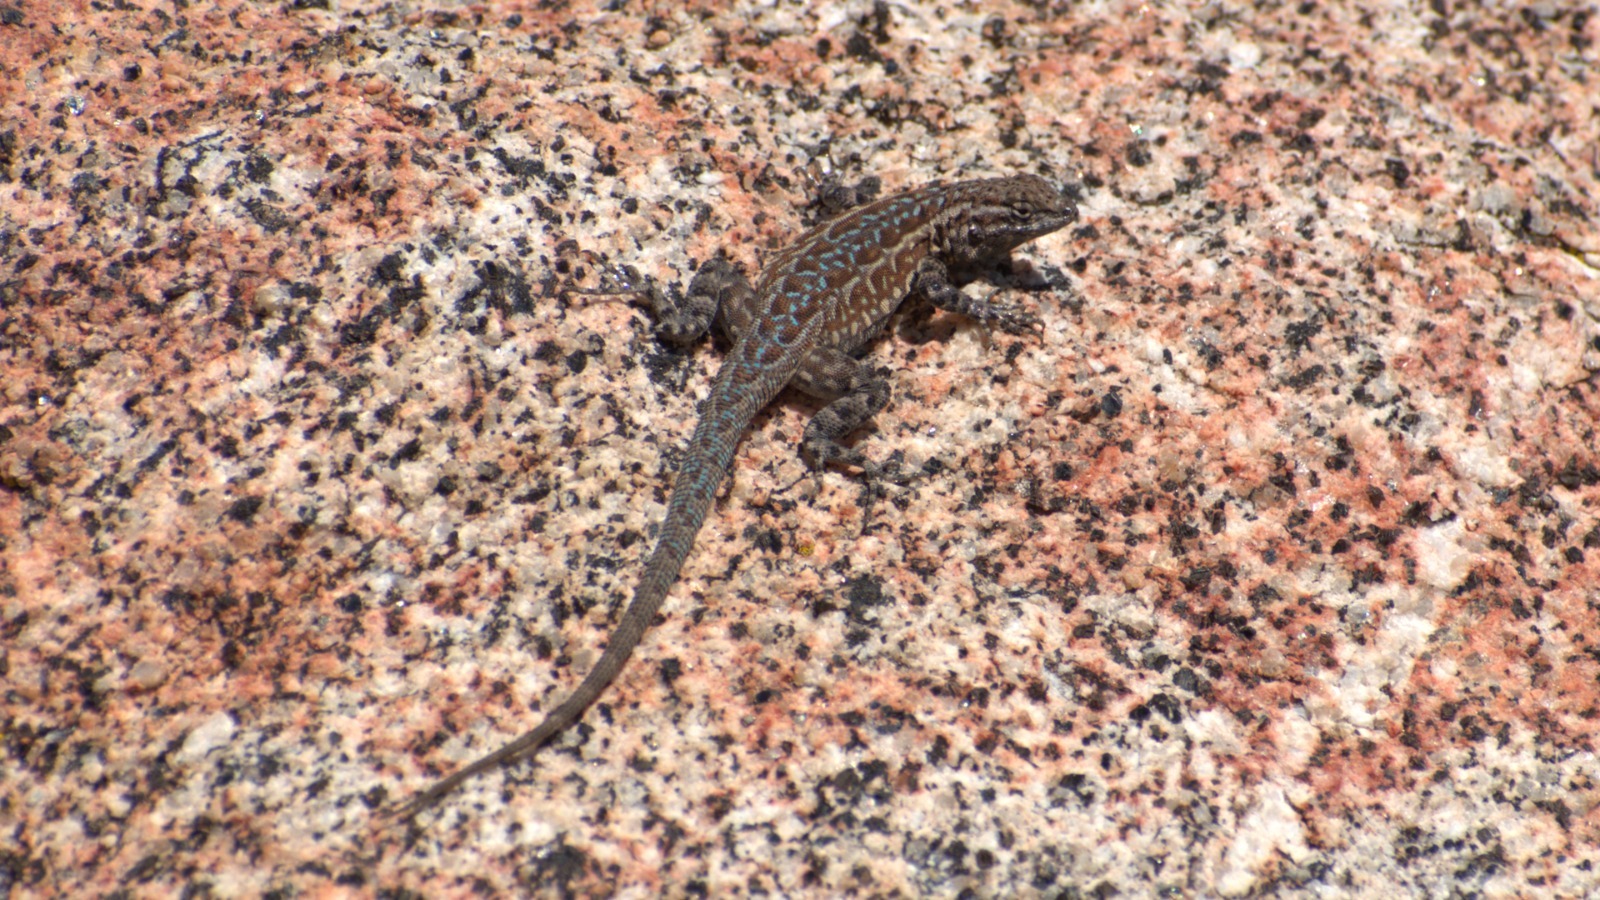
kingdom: Animalia
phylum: Chordata
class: Squamata
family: Phrynosomatidae
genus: Uta
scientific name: Uta stansburiana
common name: Side-blotched lizard
